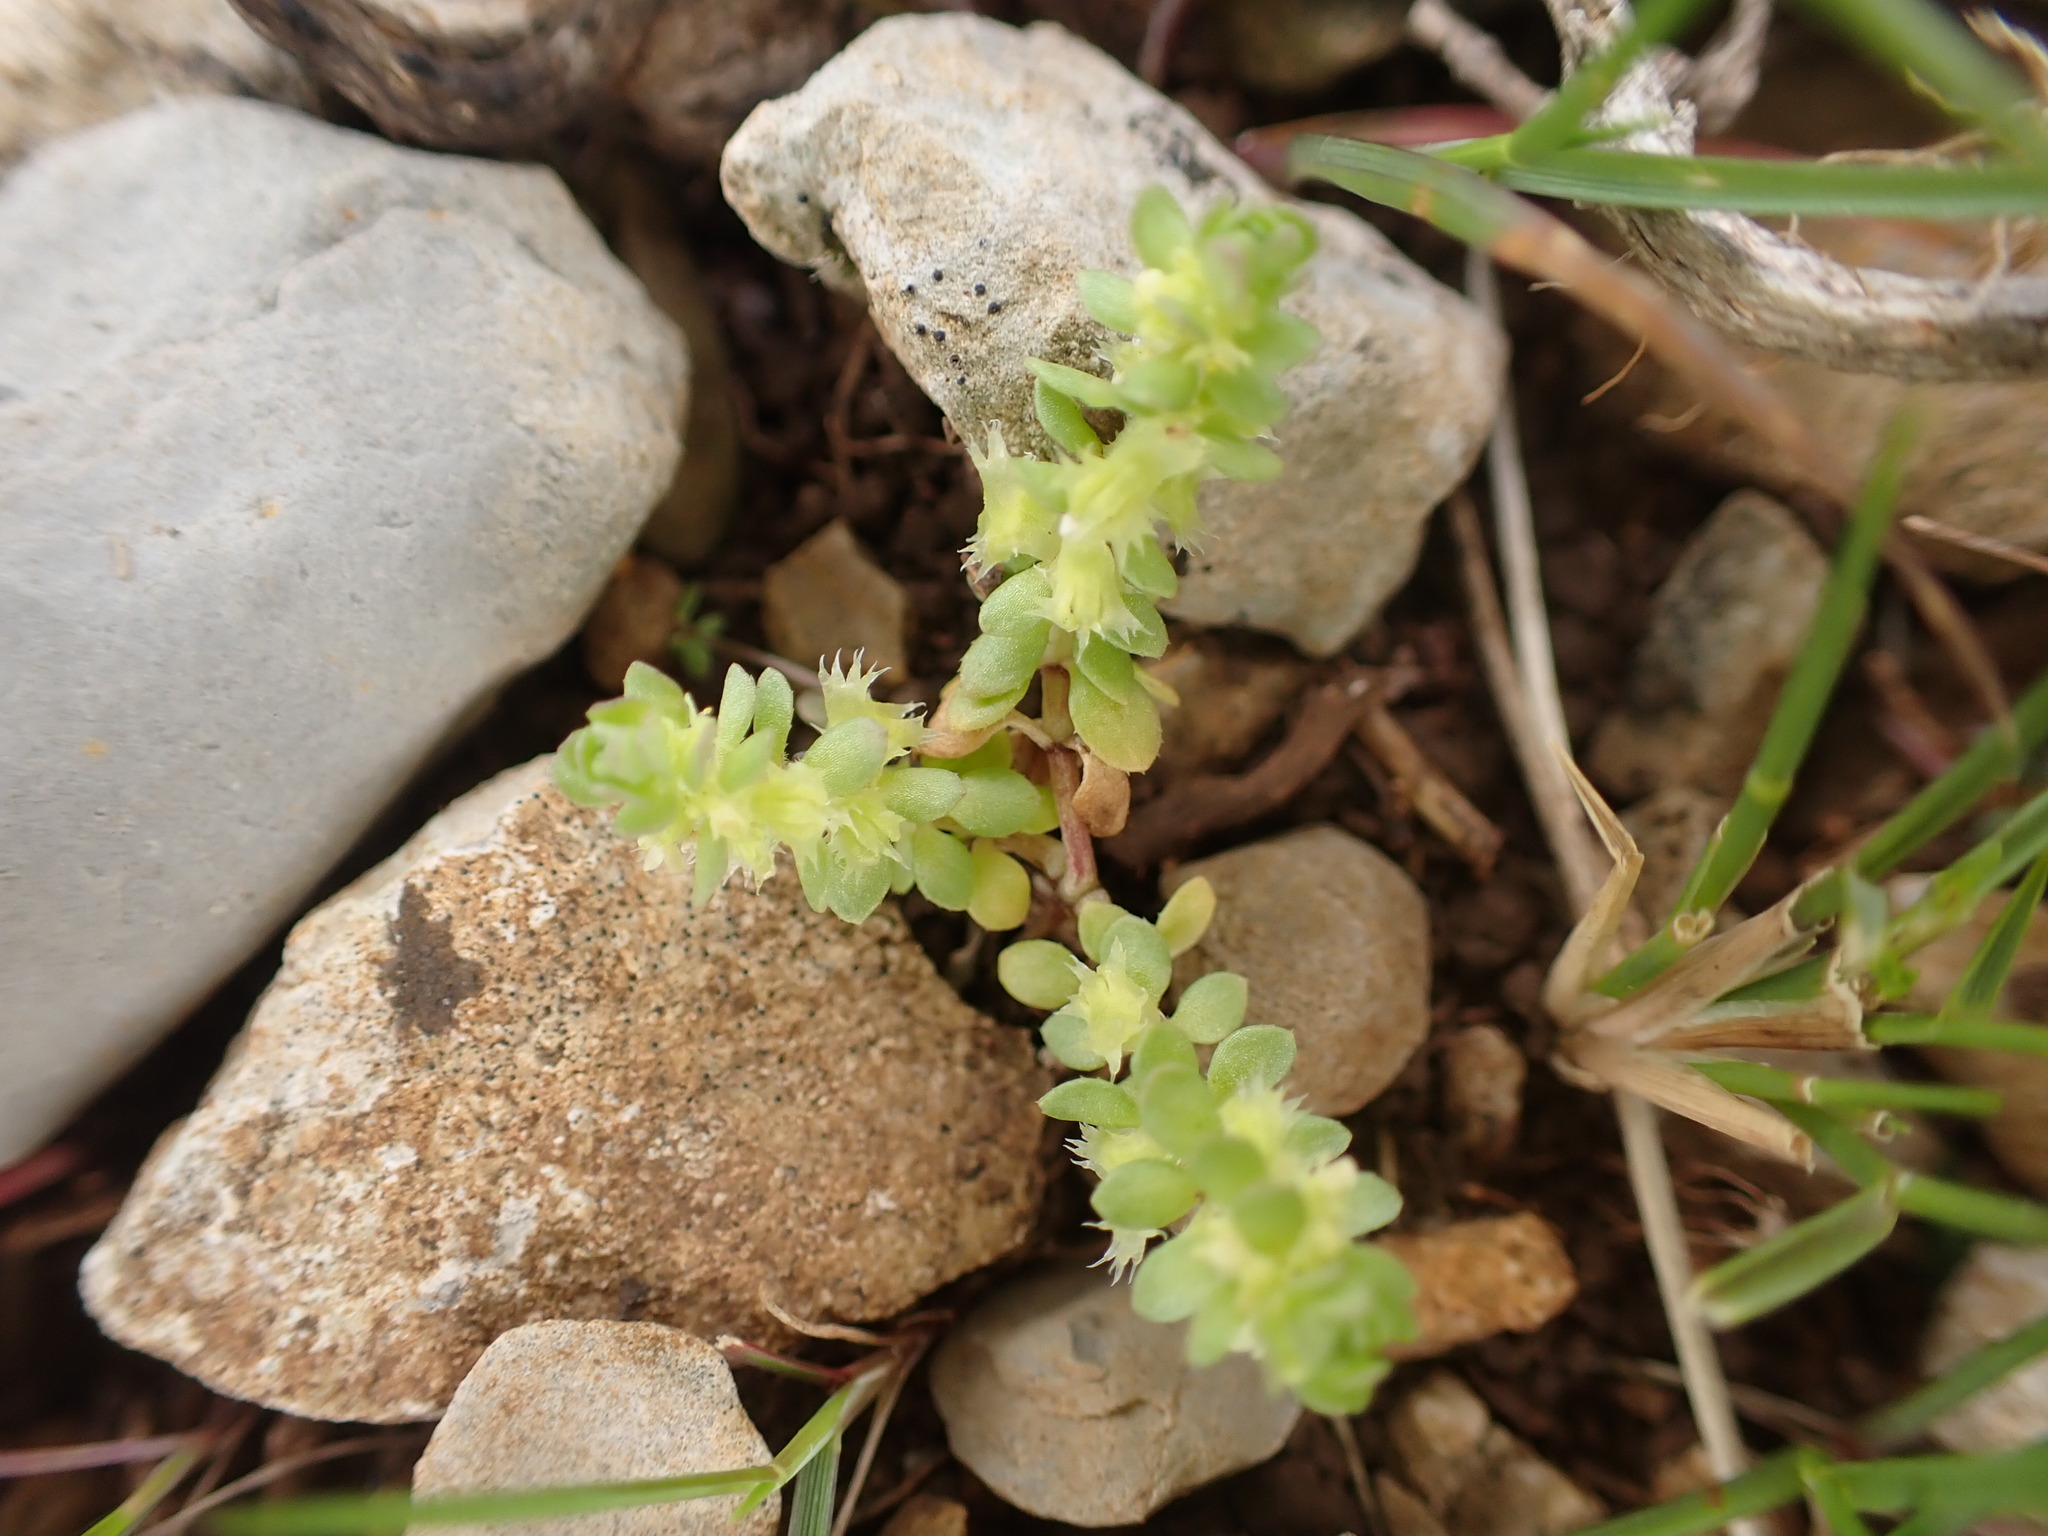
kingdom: Plantae
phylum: Tracheophyta
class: Magnoliopsida
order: Gentianales
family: Rubiaceae
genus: Valantia
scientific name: Valantia muralis
